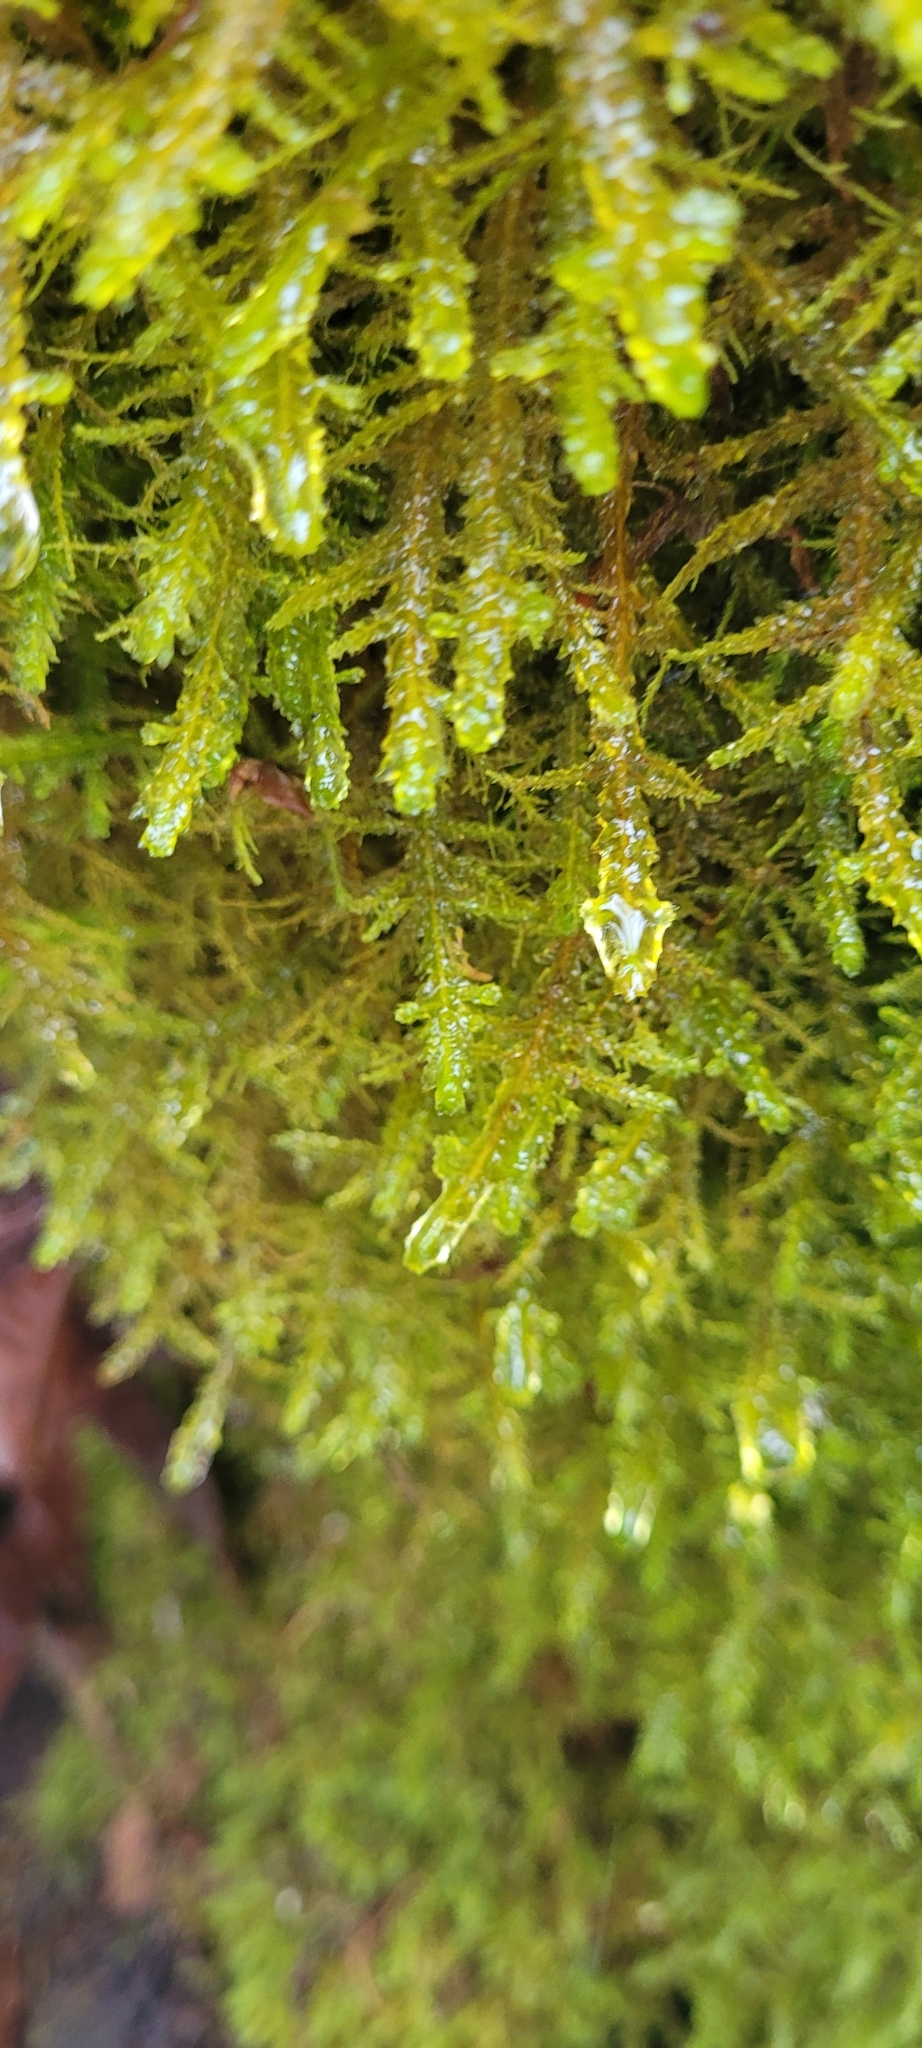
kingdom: Plantae
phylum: Bryophyta
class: Bryopsida
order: Hypnales
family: Neckeraceae
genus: Metaneckera
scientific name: Metaneckera menziesii
